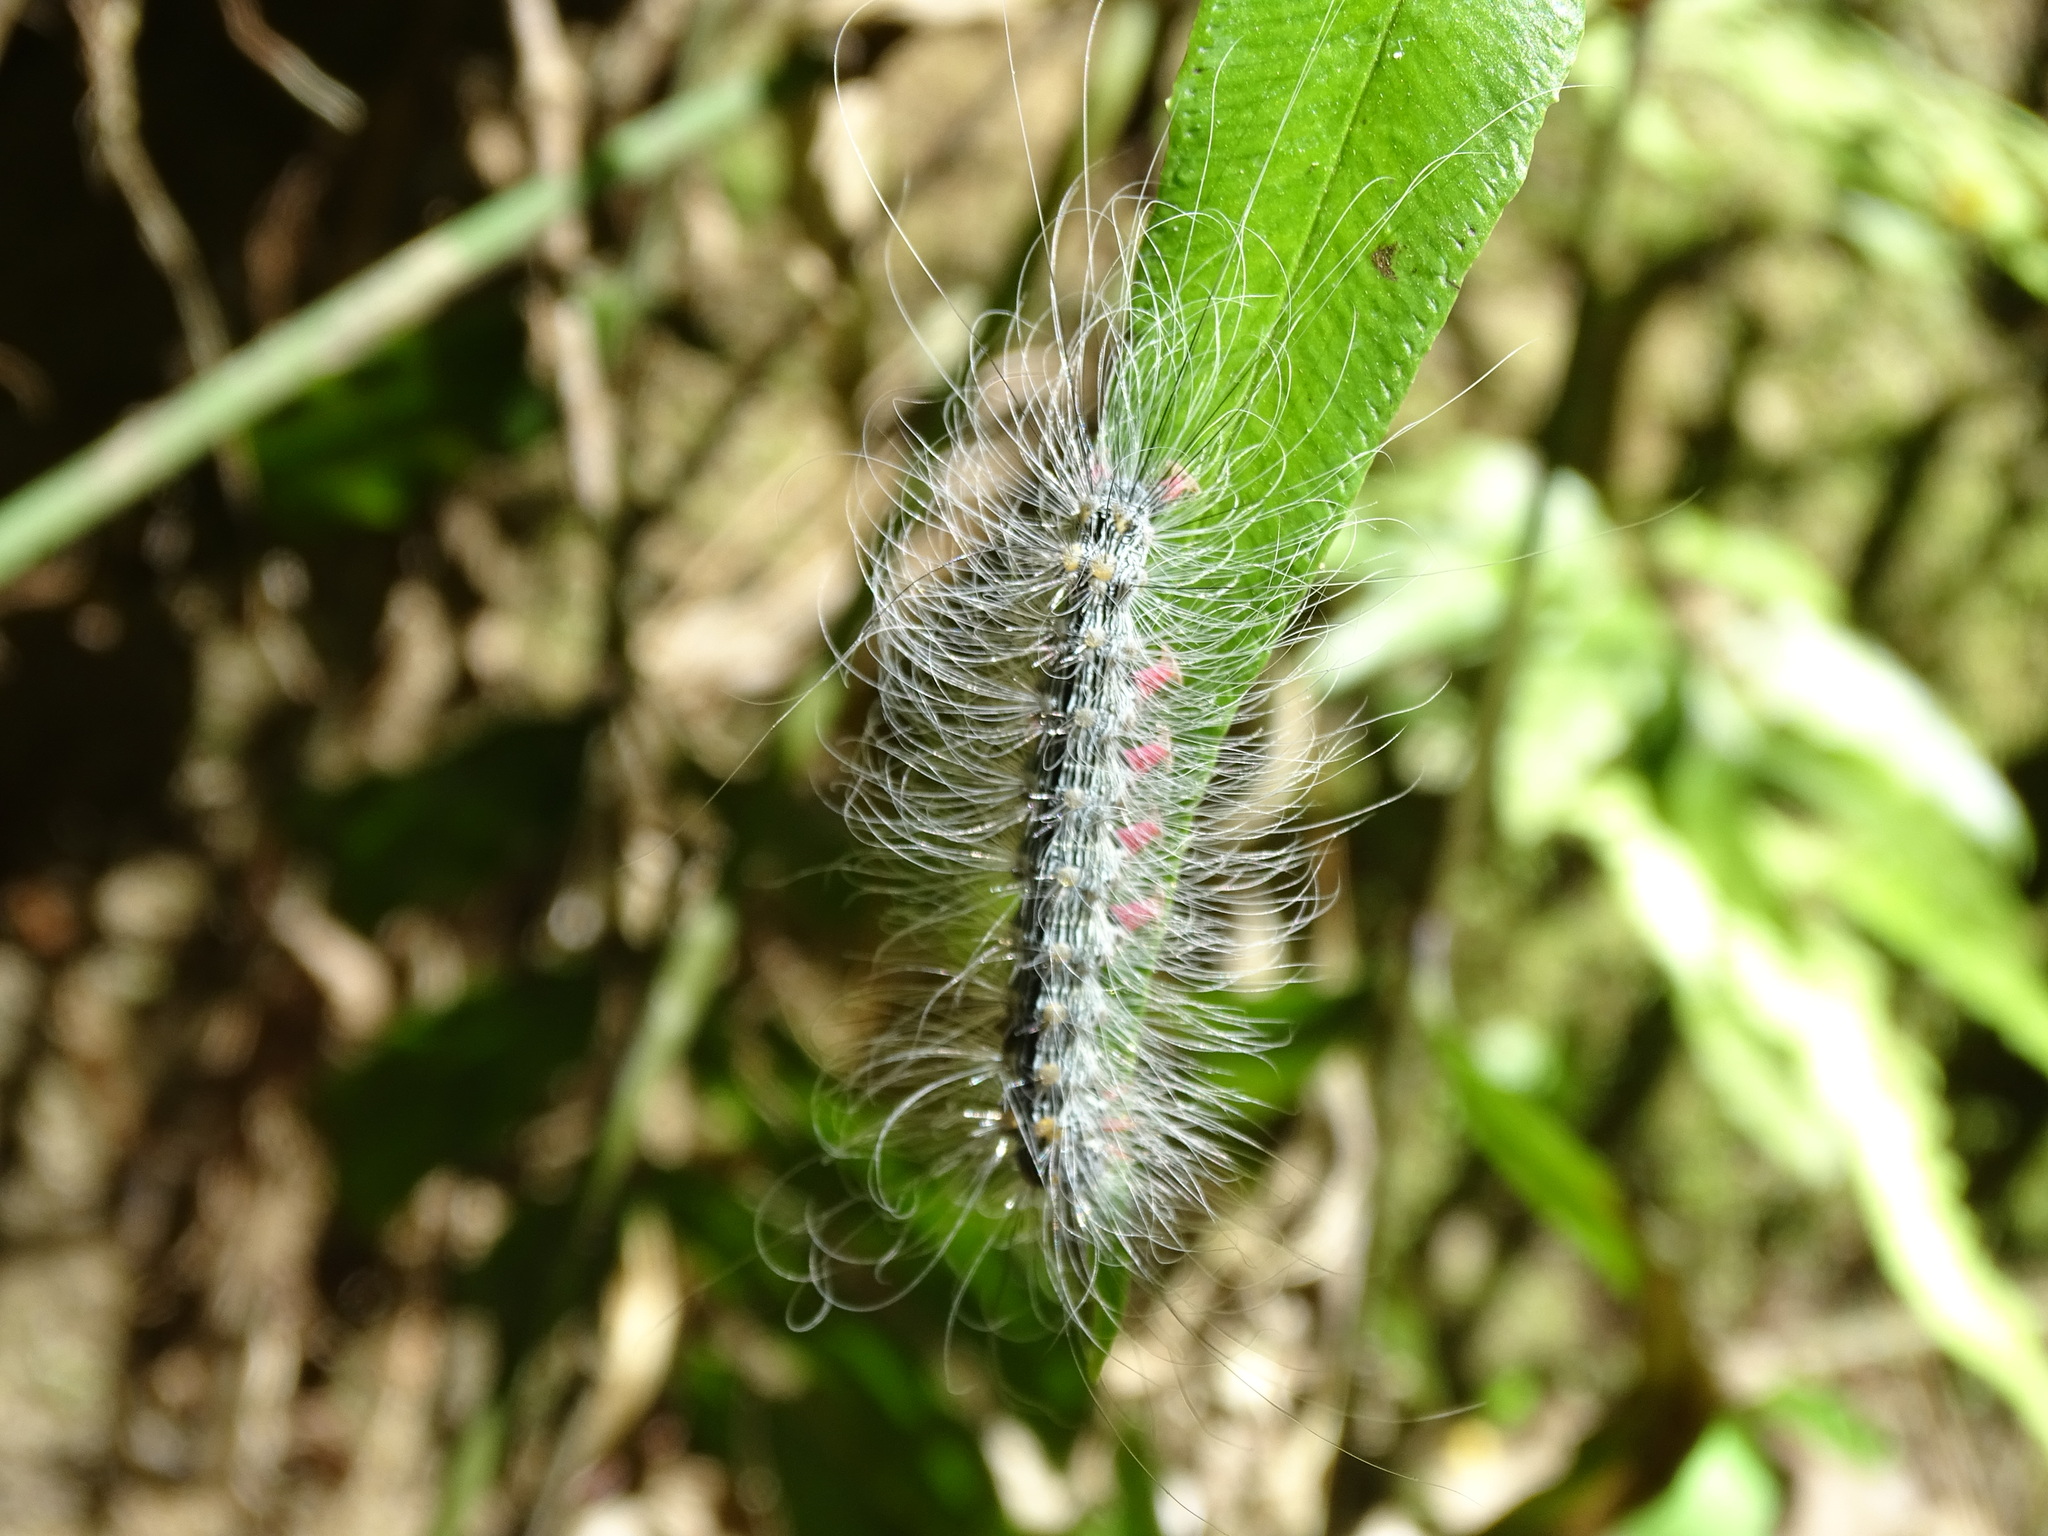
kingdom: Animalia
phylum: Arthropoda
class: Insecta
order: Lepidoptera
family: Erebidae
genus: Chrysaeglia
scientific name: Chrysaeglia magnifica
